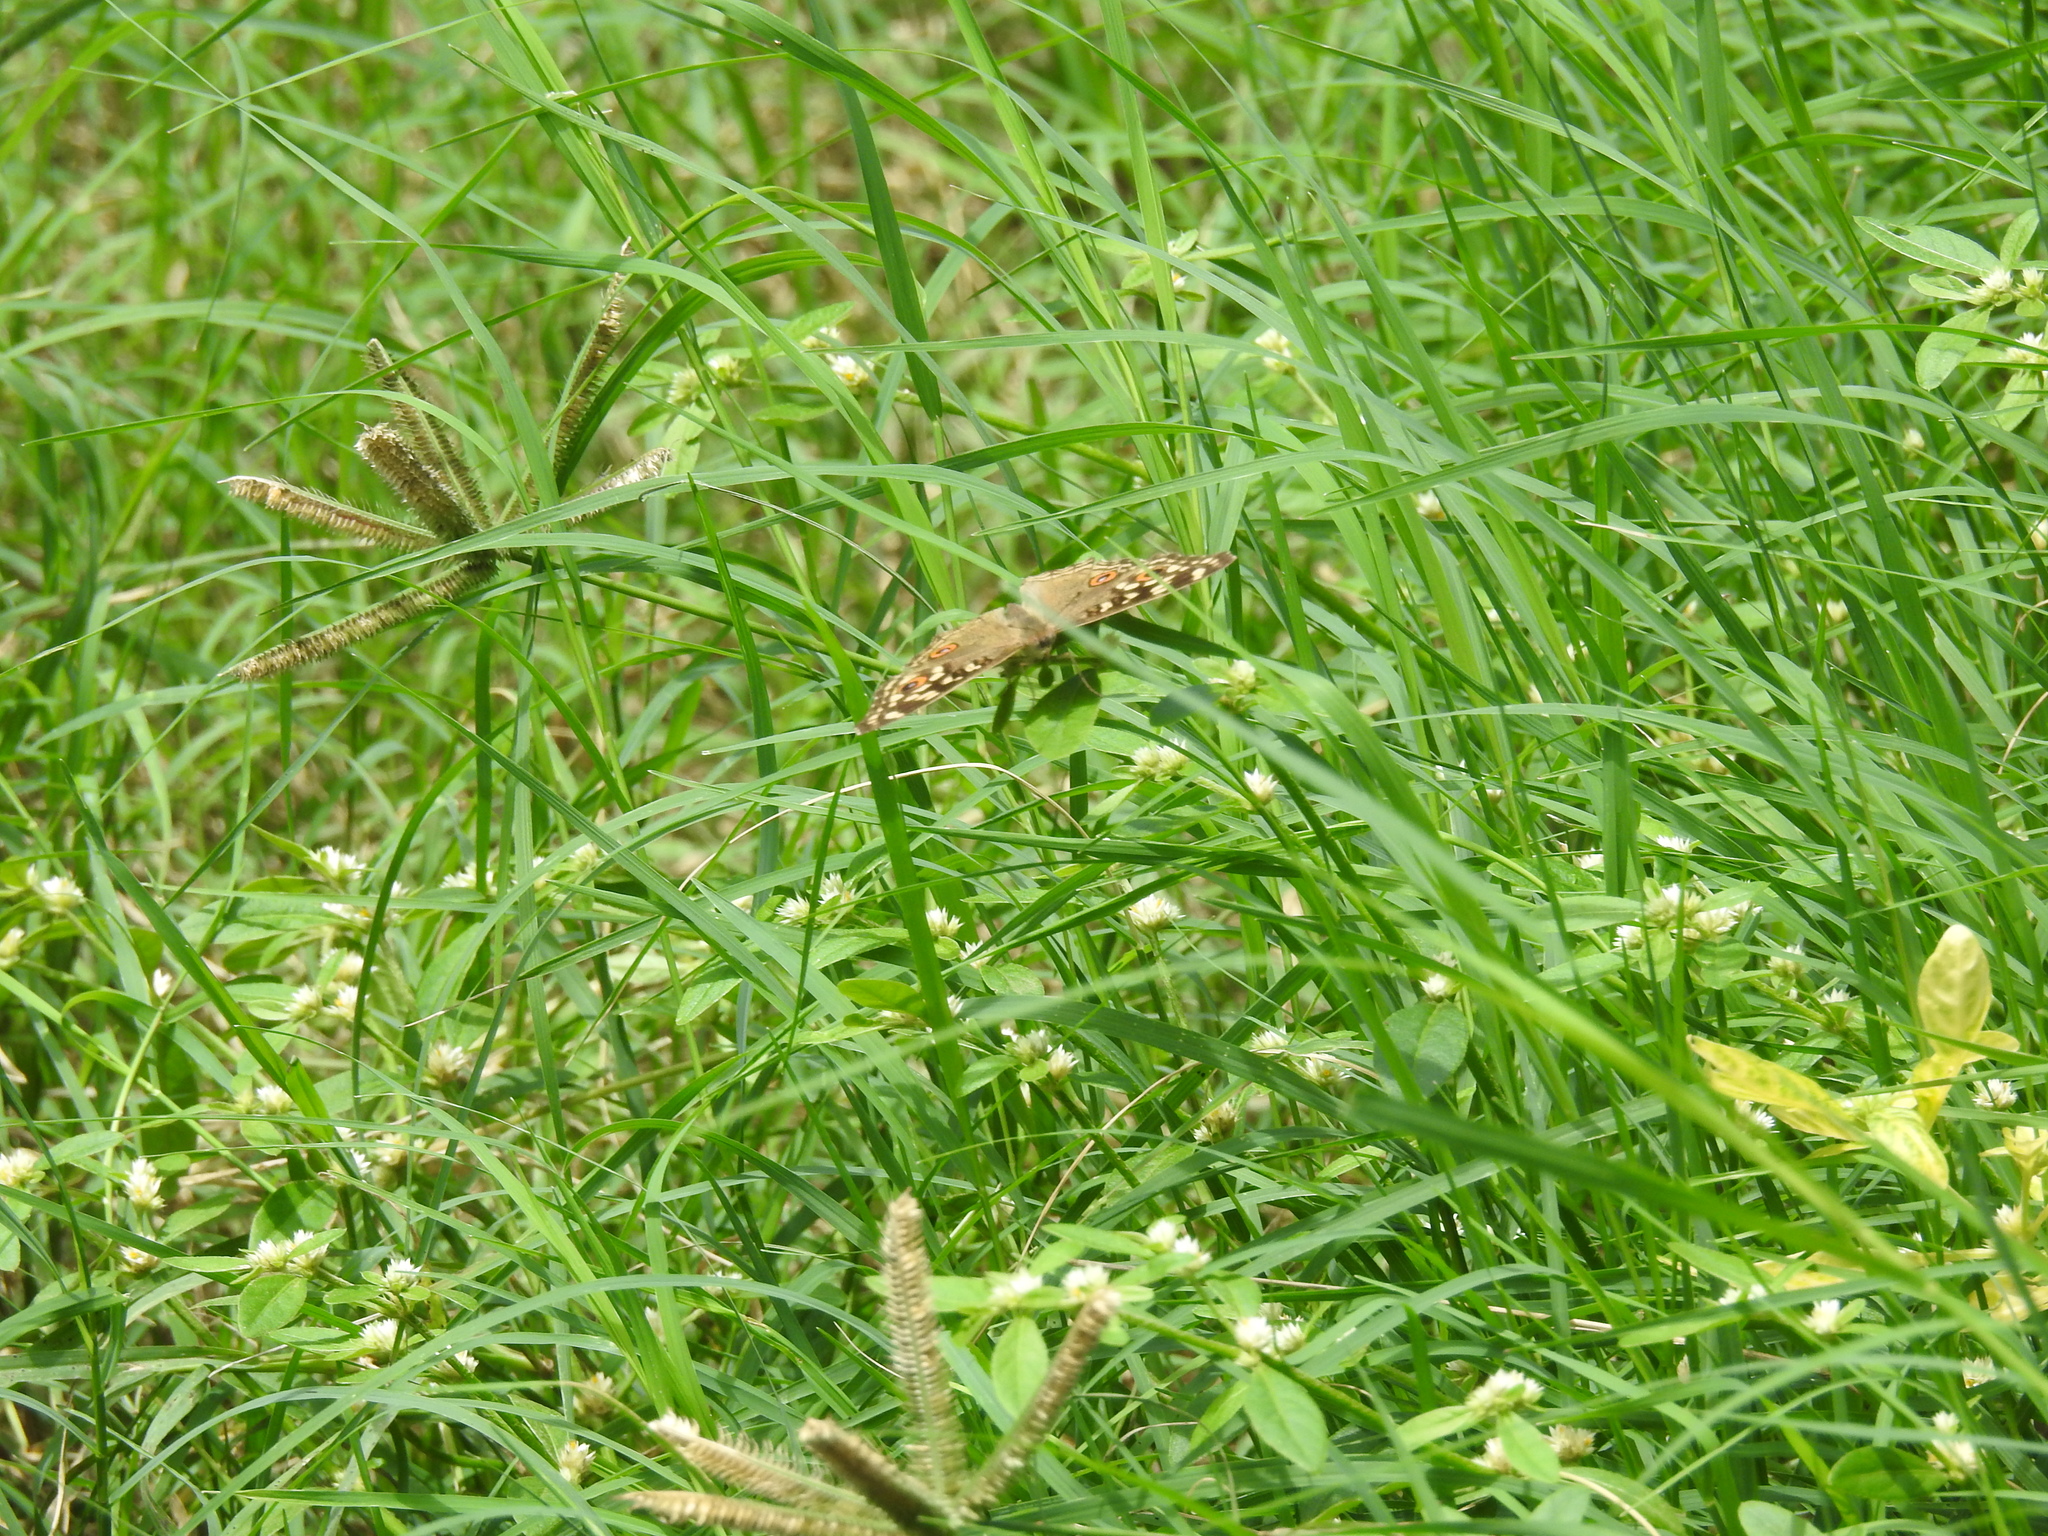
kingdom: Animalia
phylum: Arthropoda
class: Insecta
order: Lepidoptera
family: Nymphalidae
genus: Junonia
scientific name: Junonia lemonias
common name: Lemon pansy
